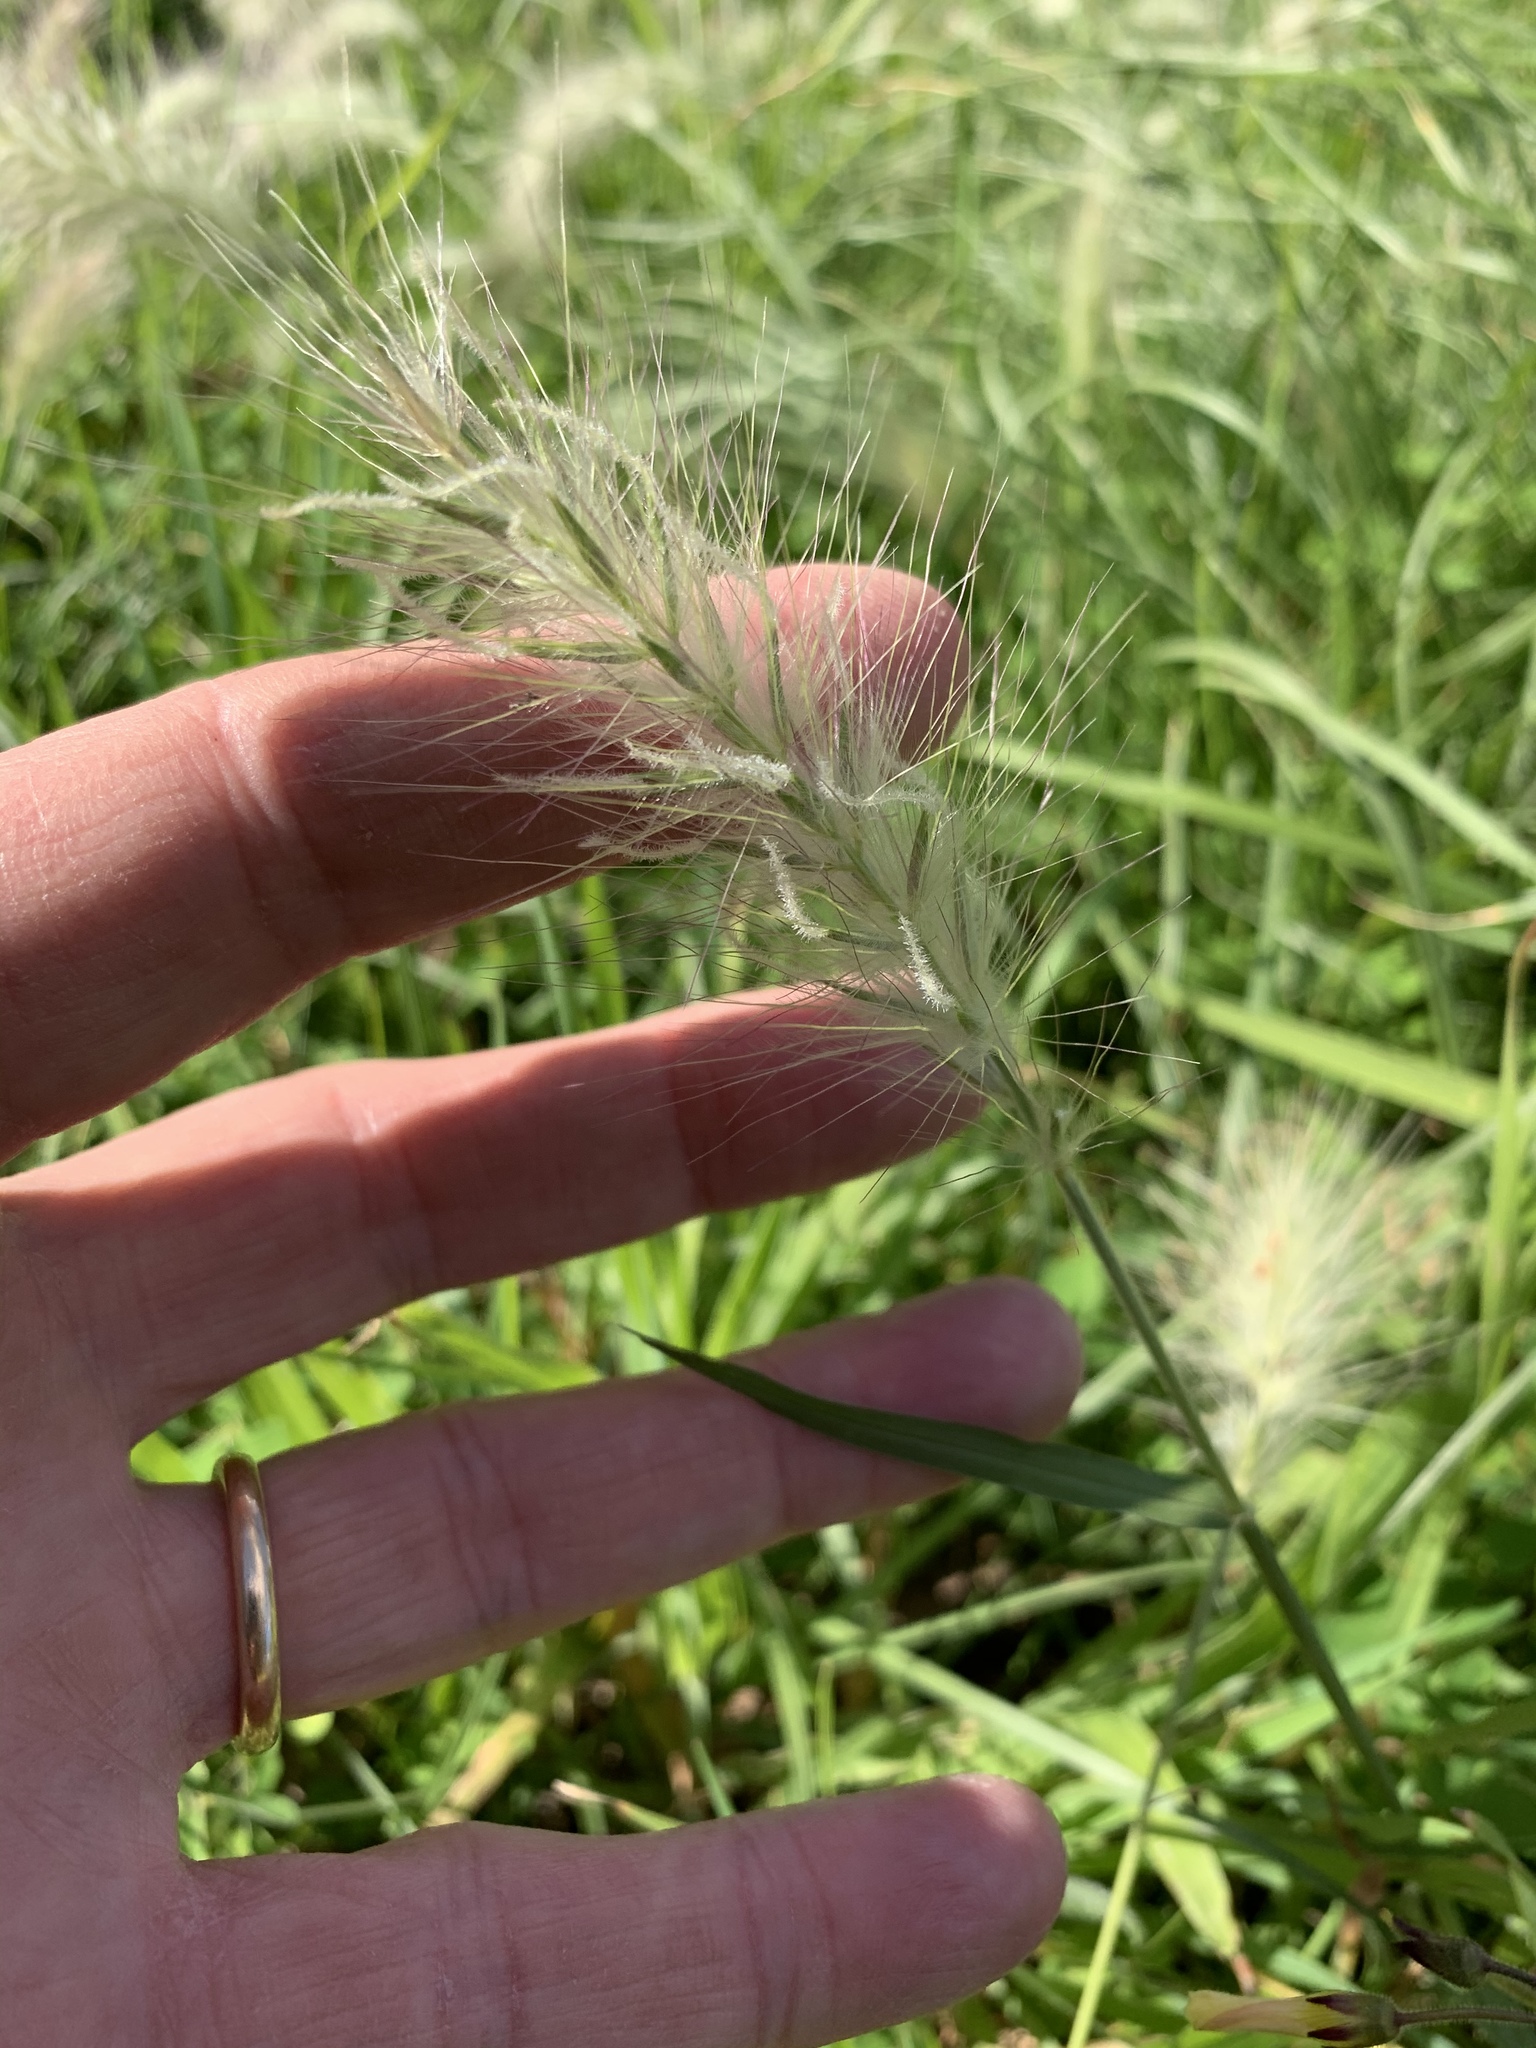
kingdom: Plantae
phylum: Tracheophyta
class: Liliopsida
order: Poales
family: Poaceae
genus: Cenchrus
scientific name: Cenchrus longisetus
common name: Feathertop
